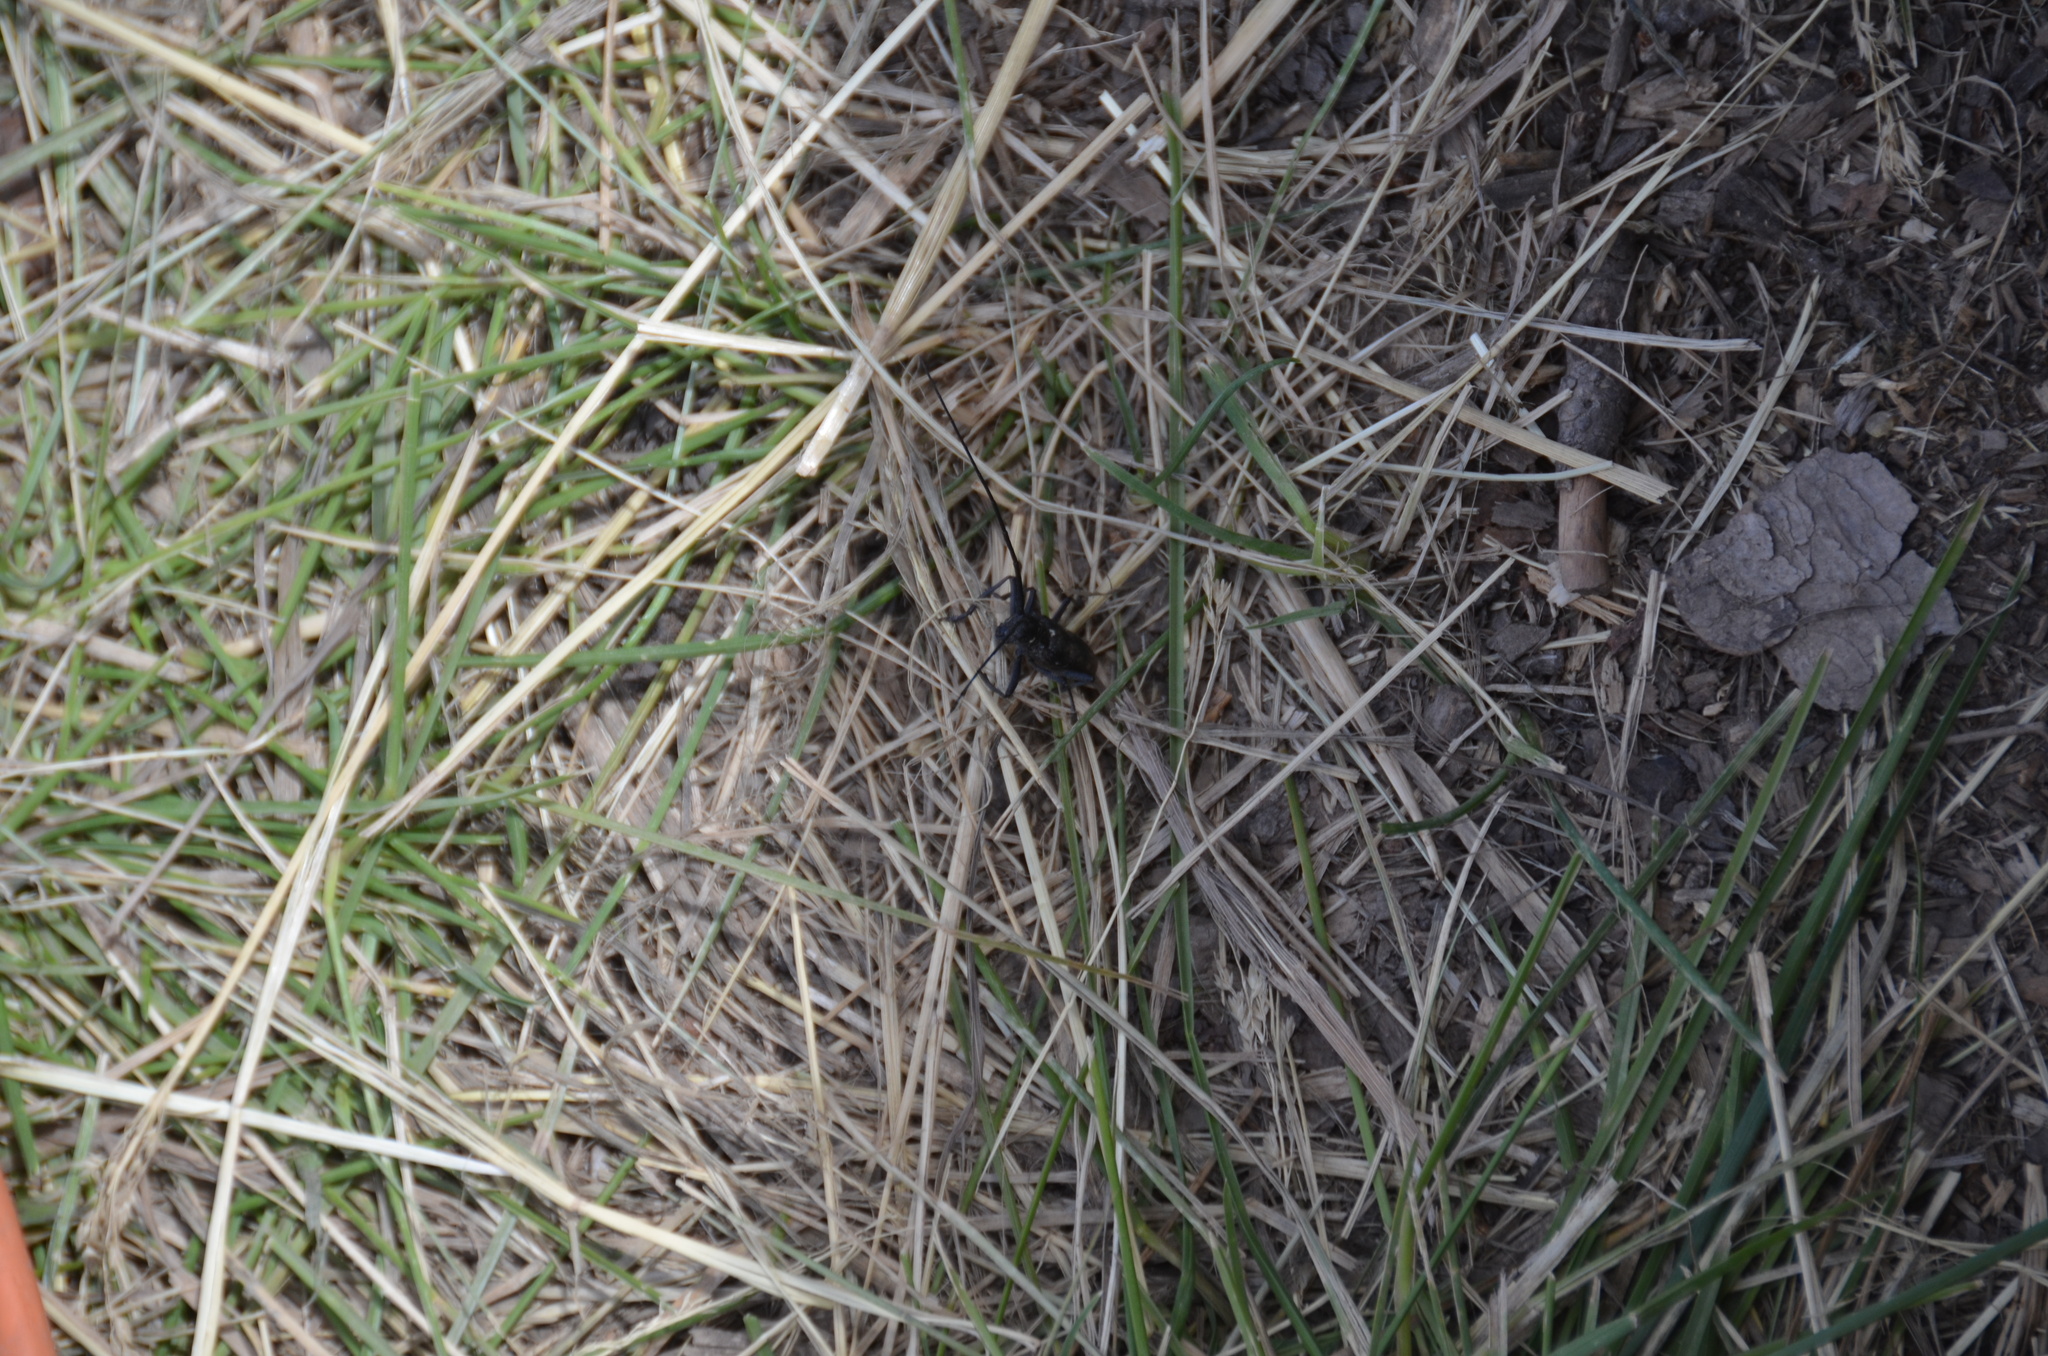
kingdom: Animalia
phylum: Arthropoda
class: Insecta
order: Coleoptera
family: Cerambycidae
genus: Monochamus
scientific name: Monochamus scutellatus
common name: White-spotted sawyer beetle
